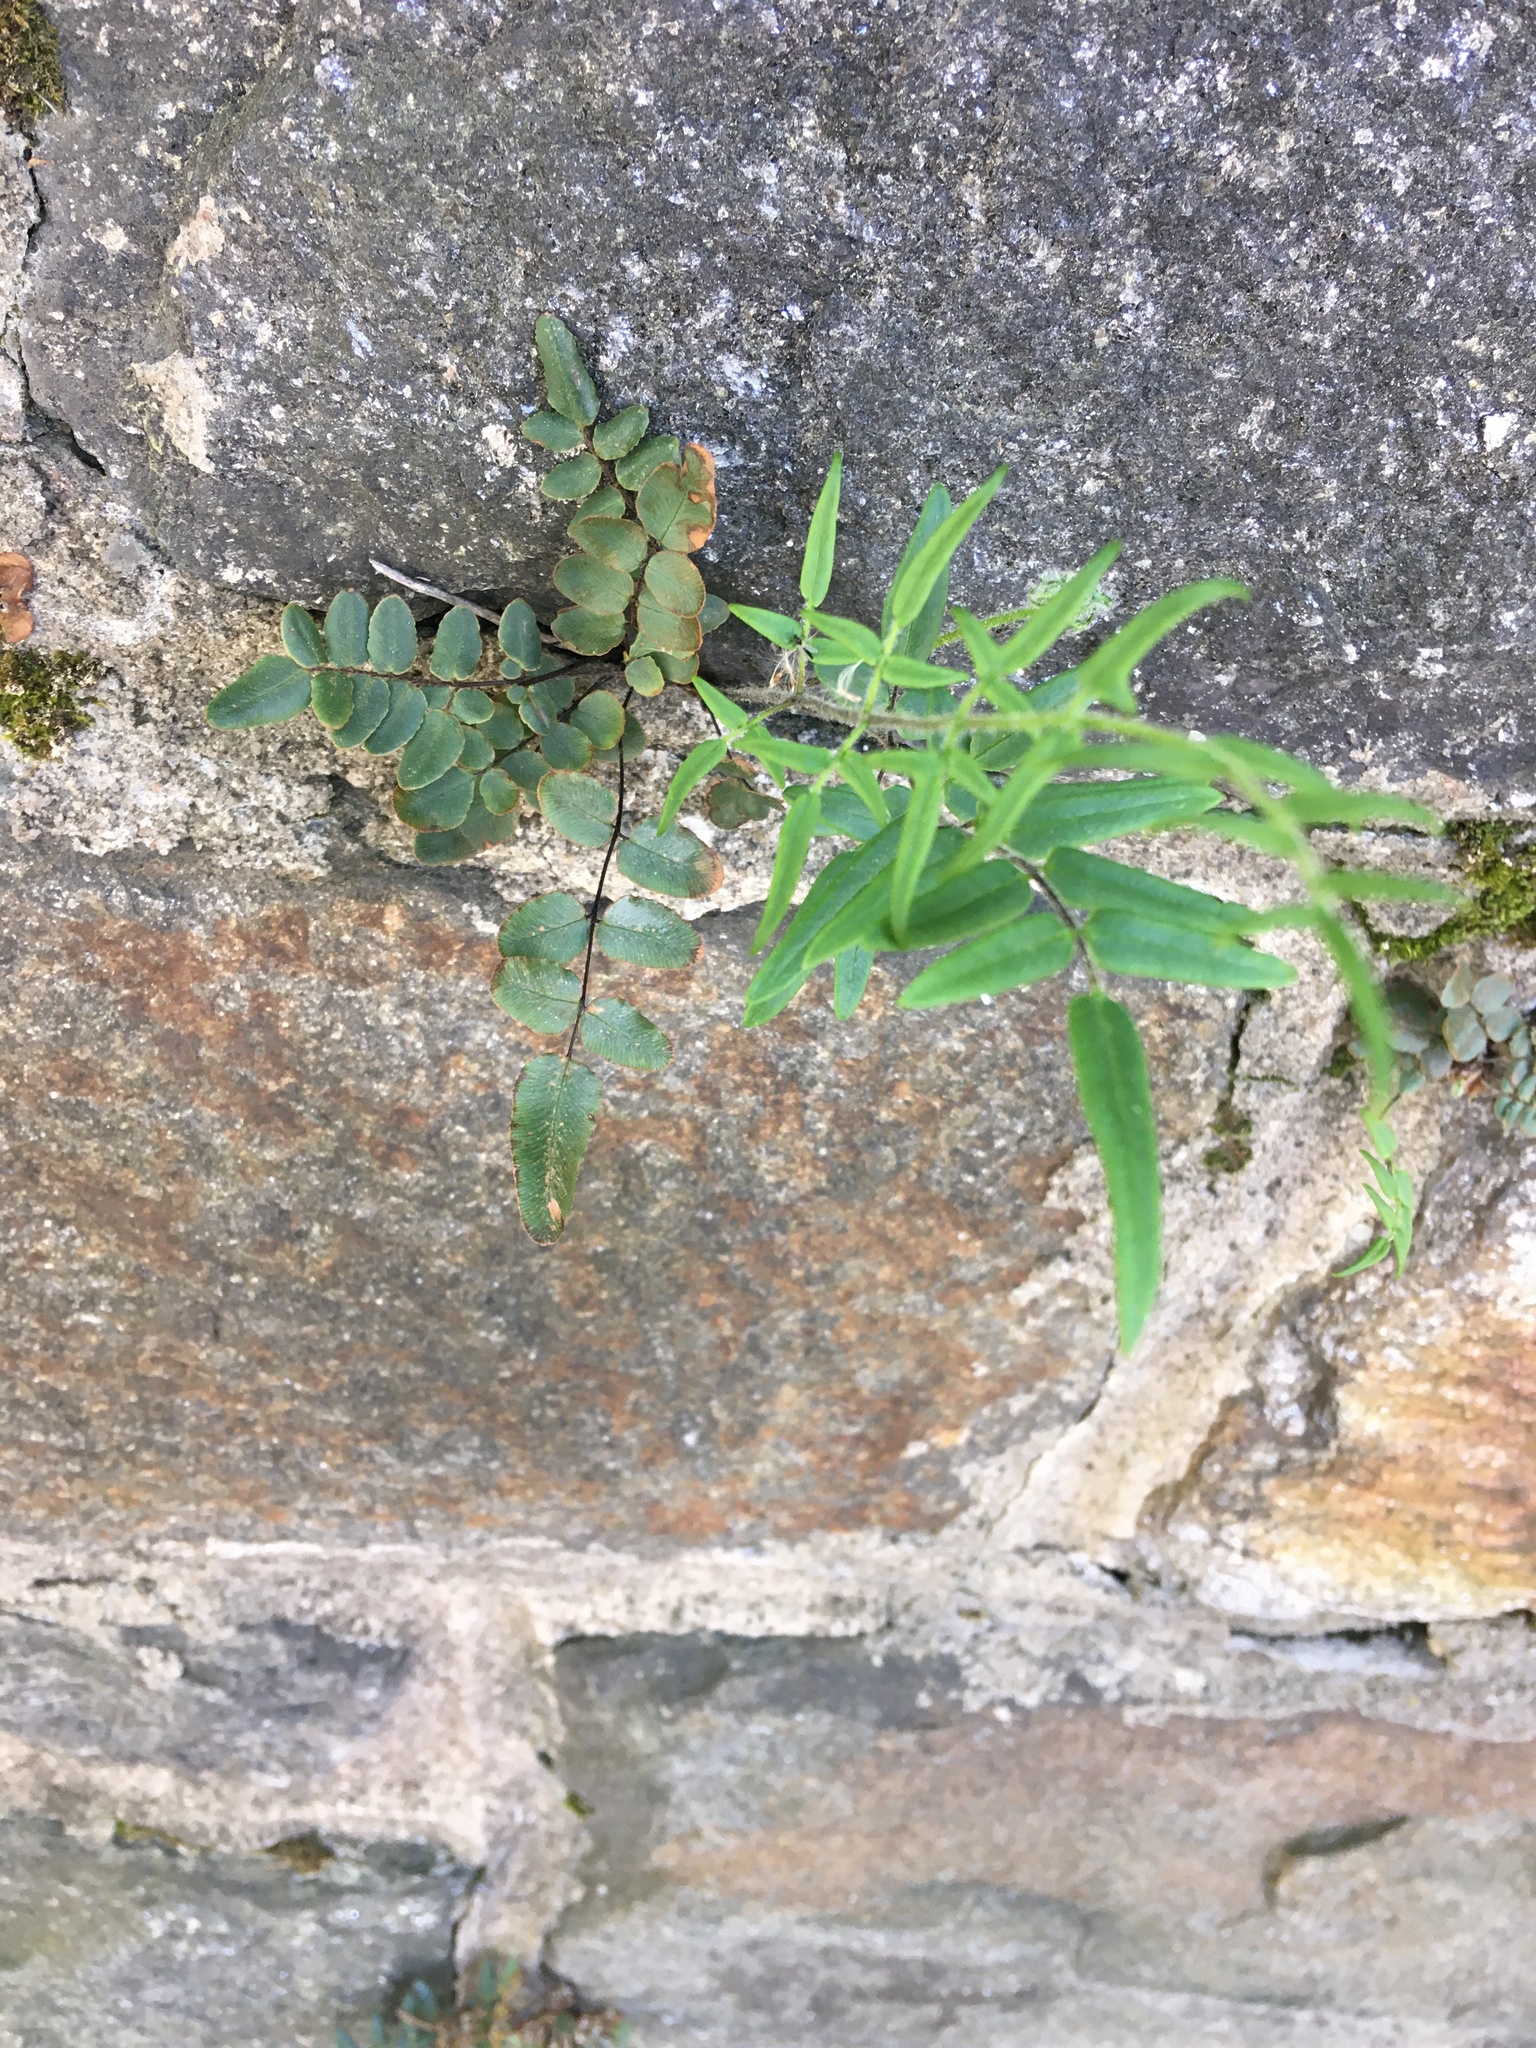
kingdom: Plantae
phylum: Tracheophyta
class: Polypodiopsida
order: Polypodiales
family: Pteridaceae
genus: Pellaea
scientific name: Pellaea atropurpurea
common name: Hairy cliffbrake
